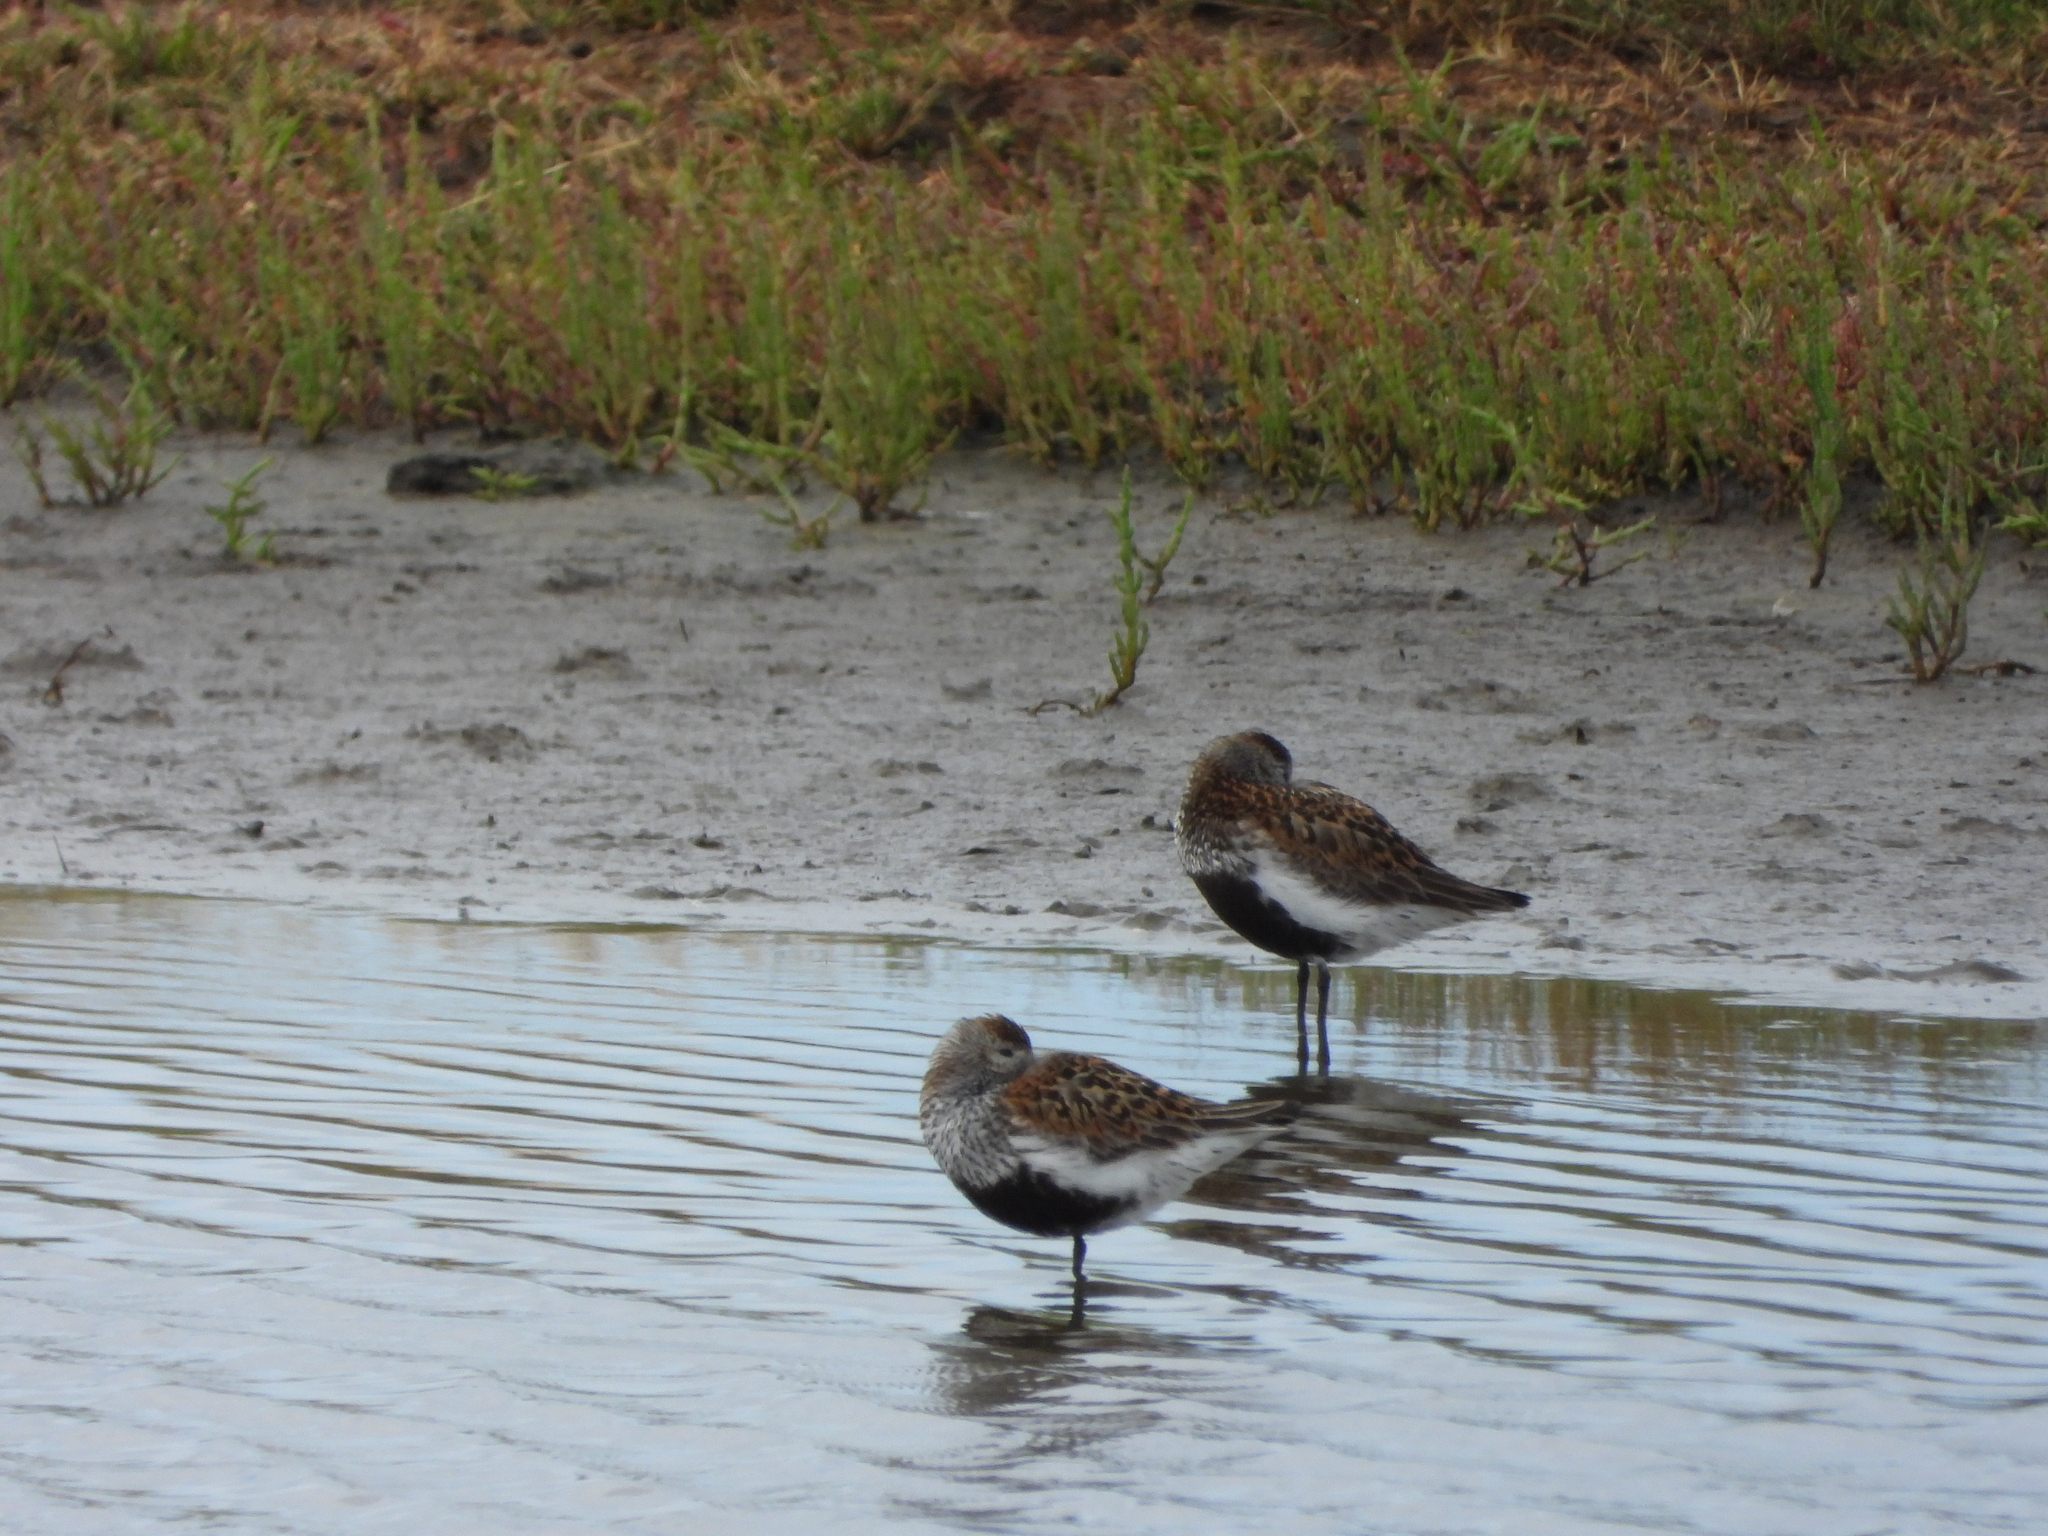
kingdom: Animalia
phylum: Chordata
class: Aves
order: Charadriiformes
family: Scolopacidae
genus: Calidris
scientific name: Calidris alpina
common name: Dunlin
